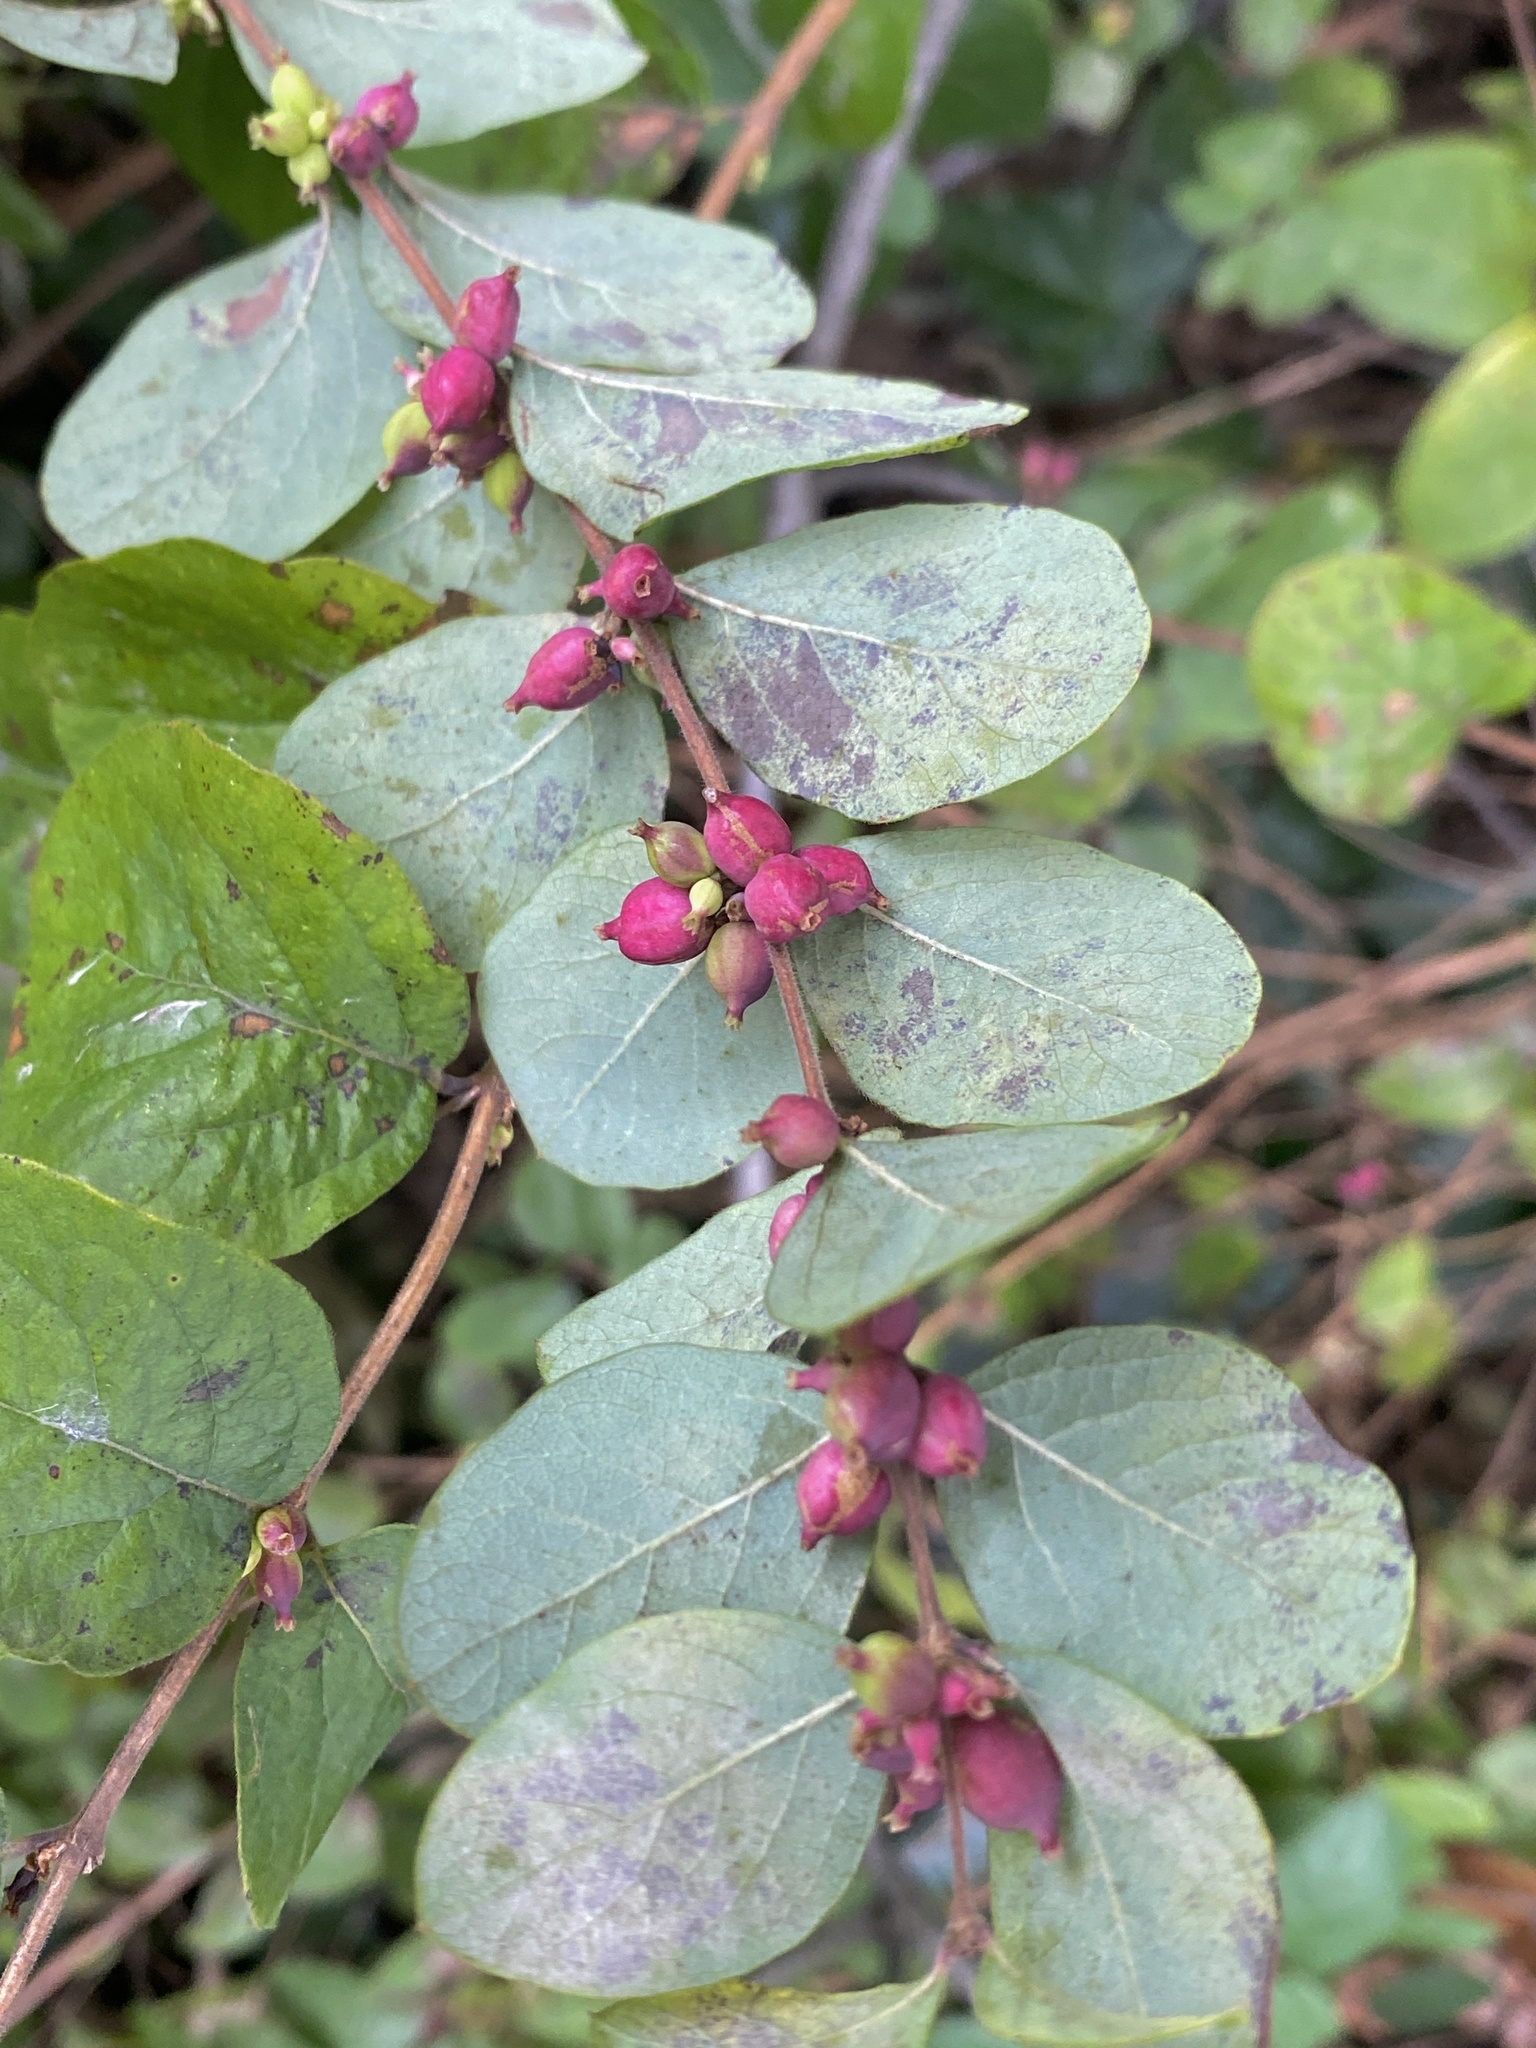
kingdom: Plantae
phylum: Tracheophyta
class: Magnoliopsida
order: Dipsacales
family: Caprifoliaceae
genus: Symphoricarpos
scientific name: Symphoricarpos orbiculatus
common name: Coralberry
